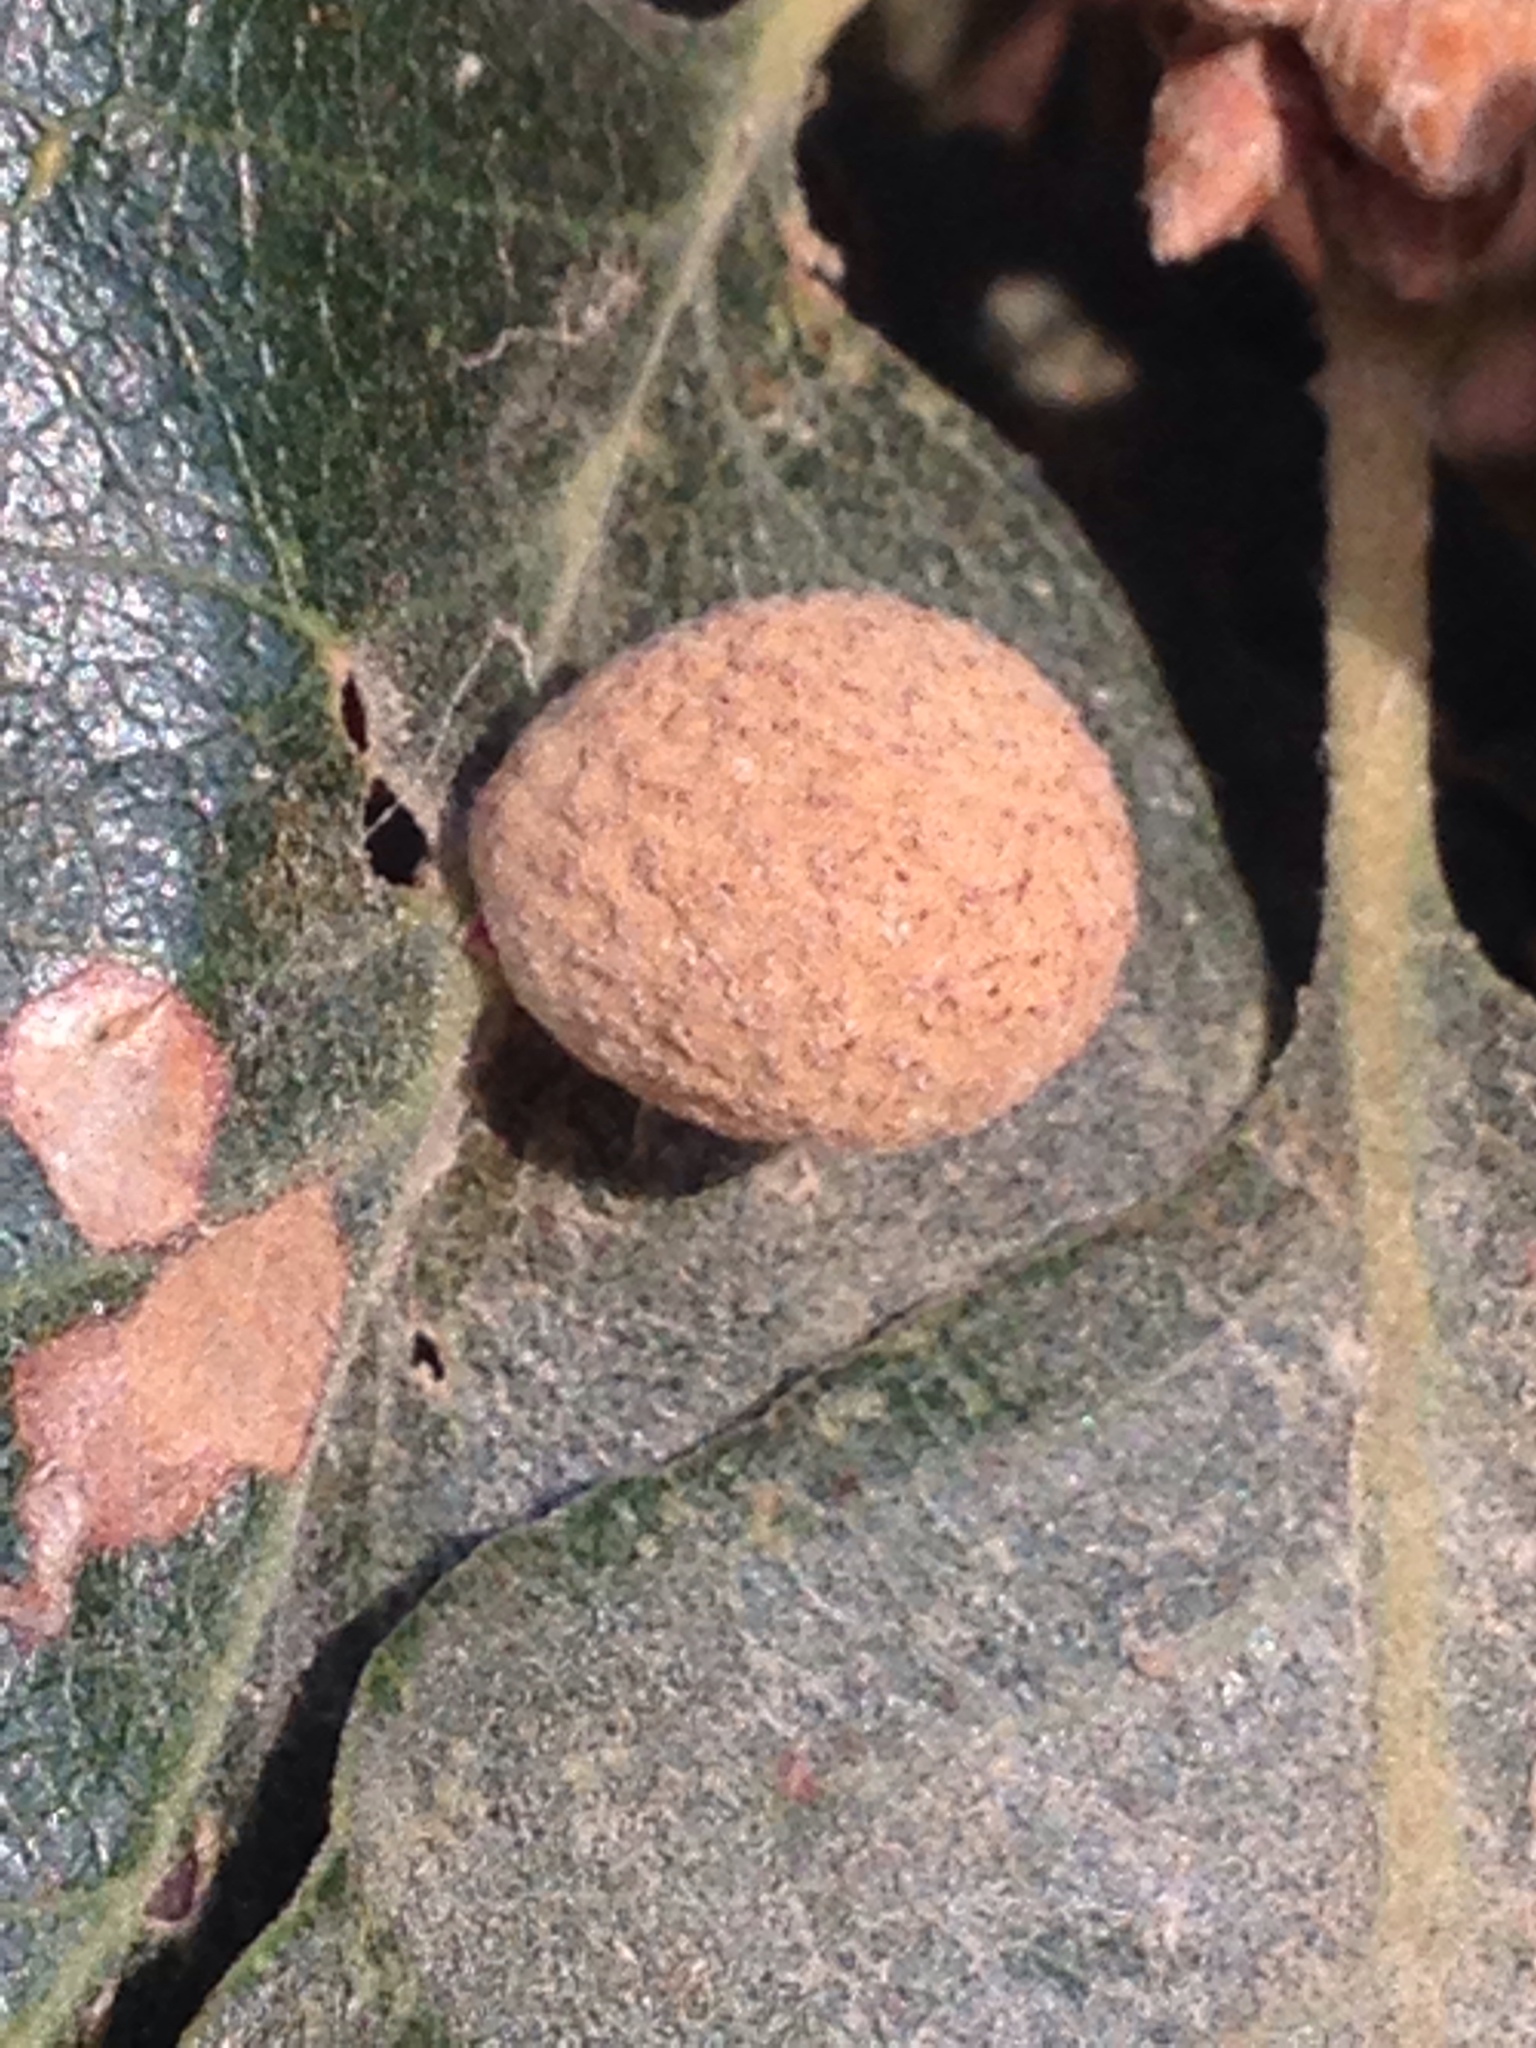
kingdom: Animalia
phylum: Arthropoda
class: Insecta
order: Hymenoptera
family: Cynipidae
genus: Cynips
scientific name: Cynips conspicua
